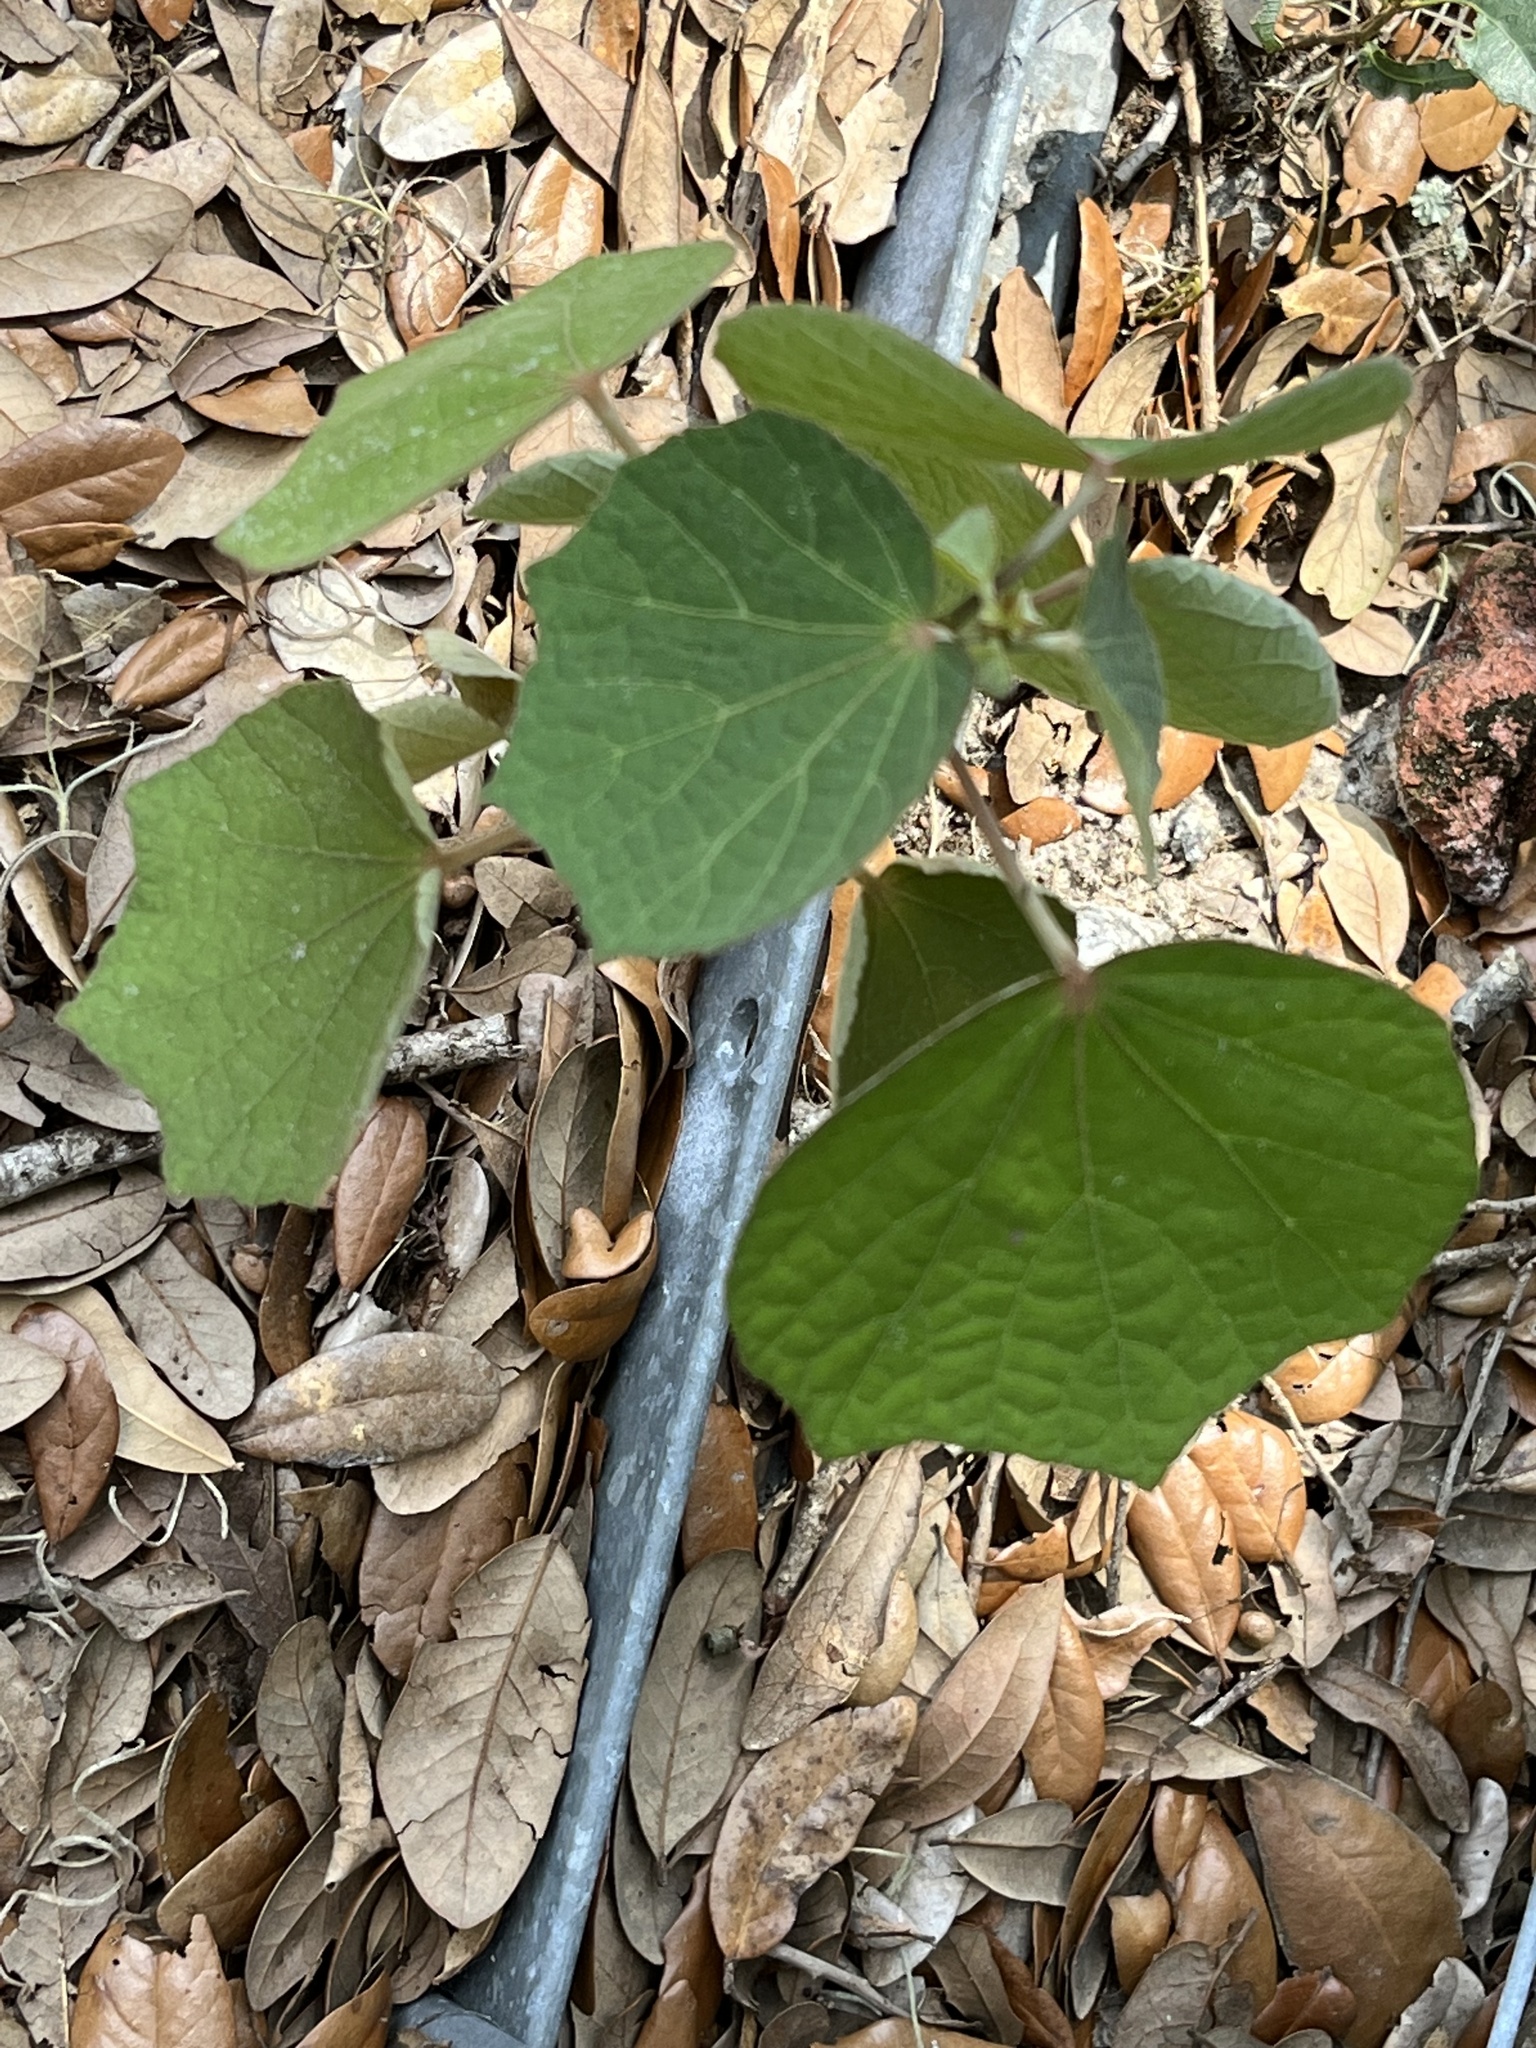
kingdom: Plantae
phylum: Tracheophyta
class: Magnoliopsida
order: Malvales
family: Malvaceae
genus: Urena
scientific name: Urena lobata
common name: Caesarweed
